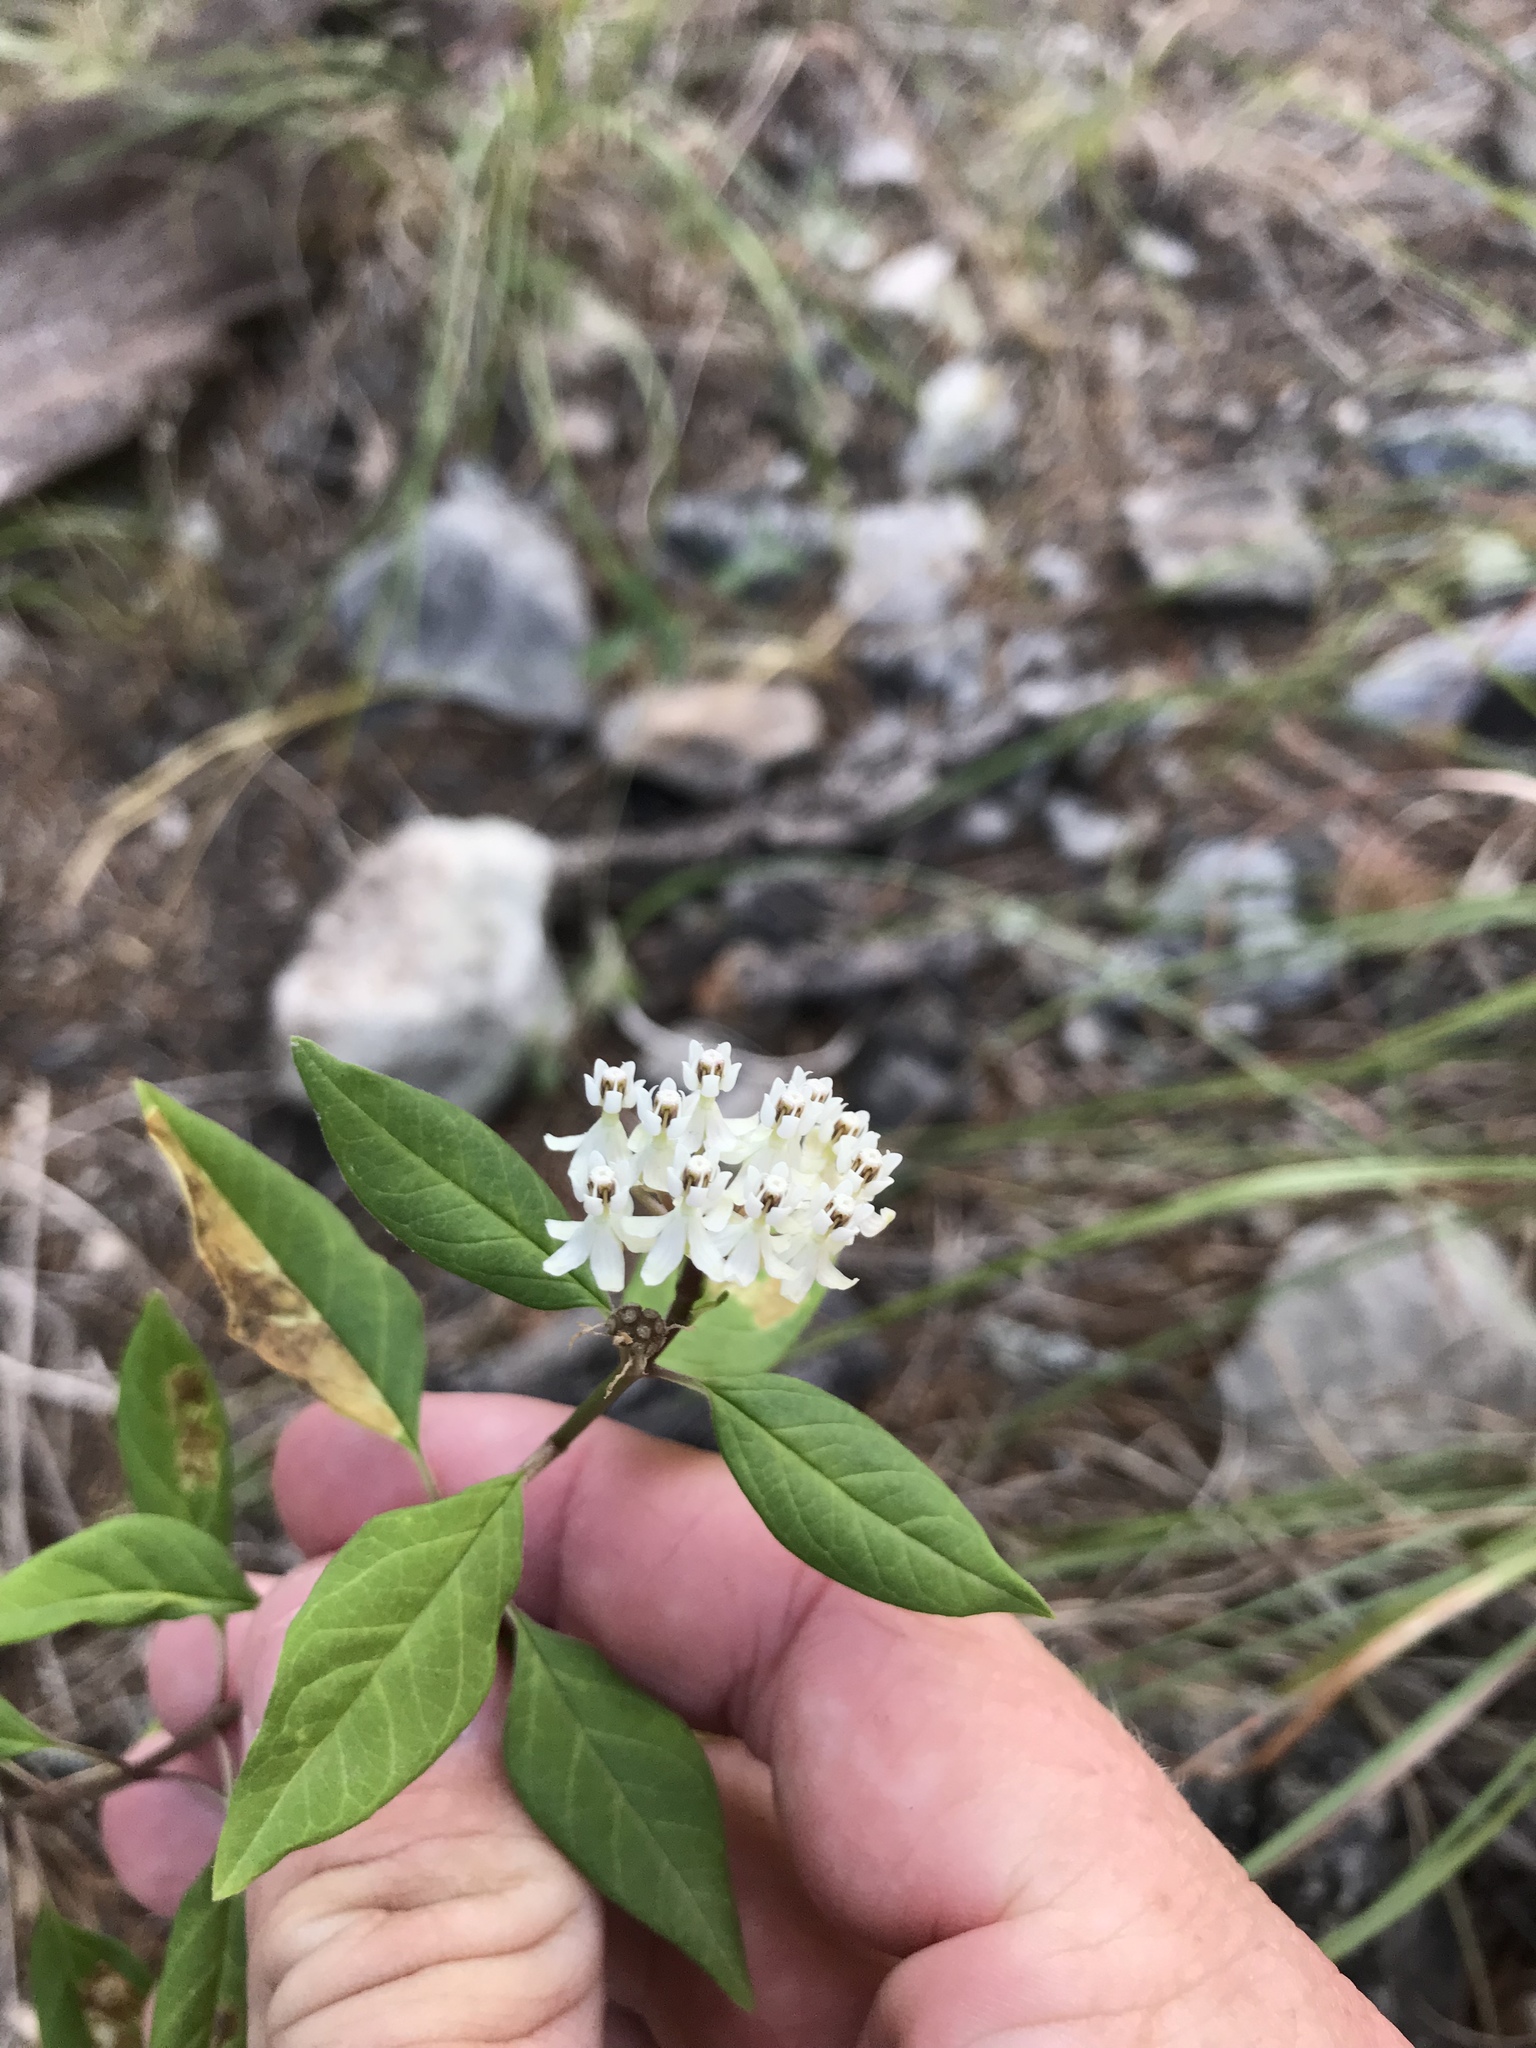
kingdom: Plantae
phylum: Tracheophyta
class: Magnoliopsida
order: Gentianales
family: Apocynaceae
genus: Asclepias
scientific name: Asclepias texana
